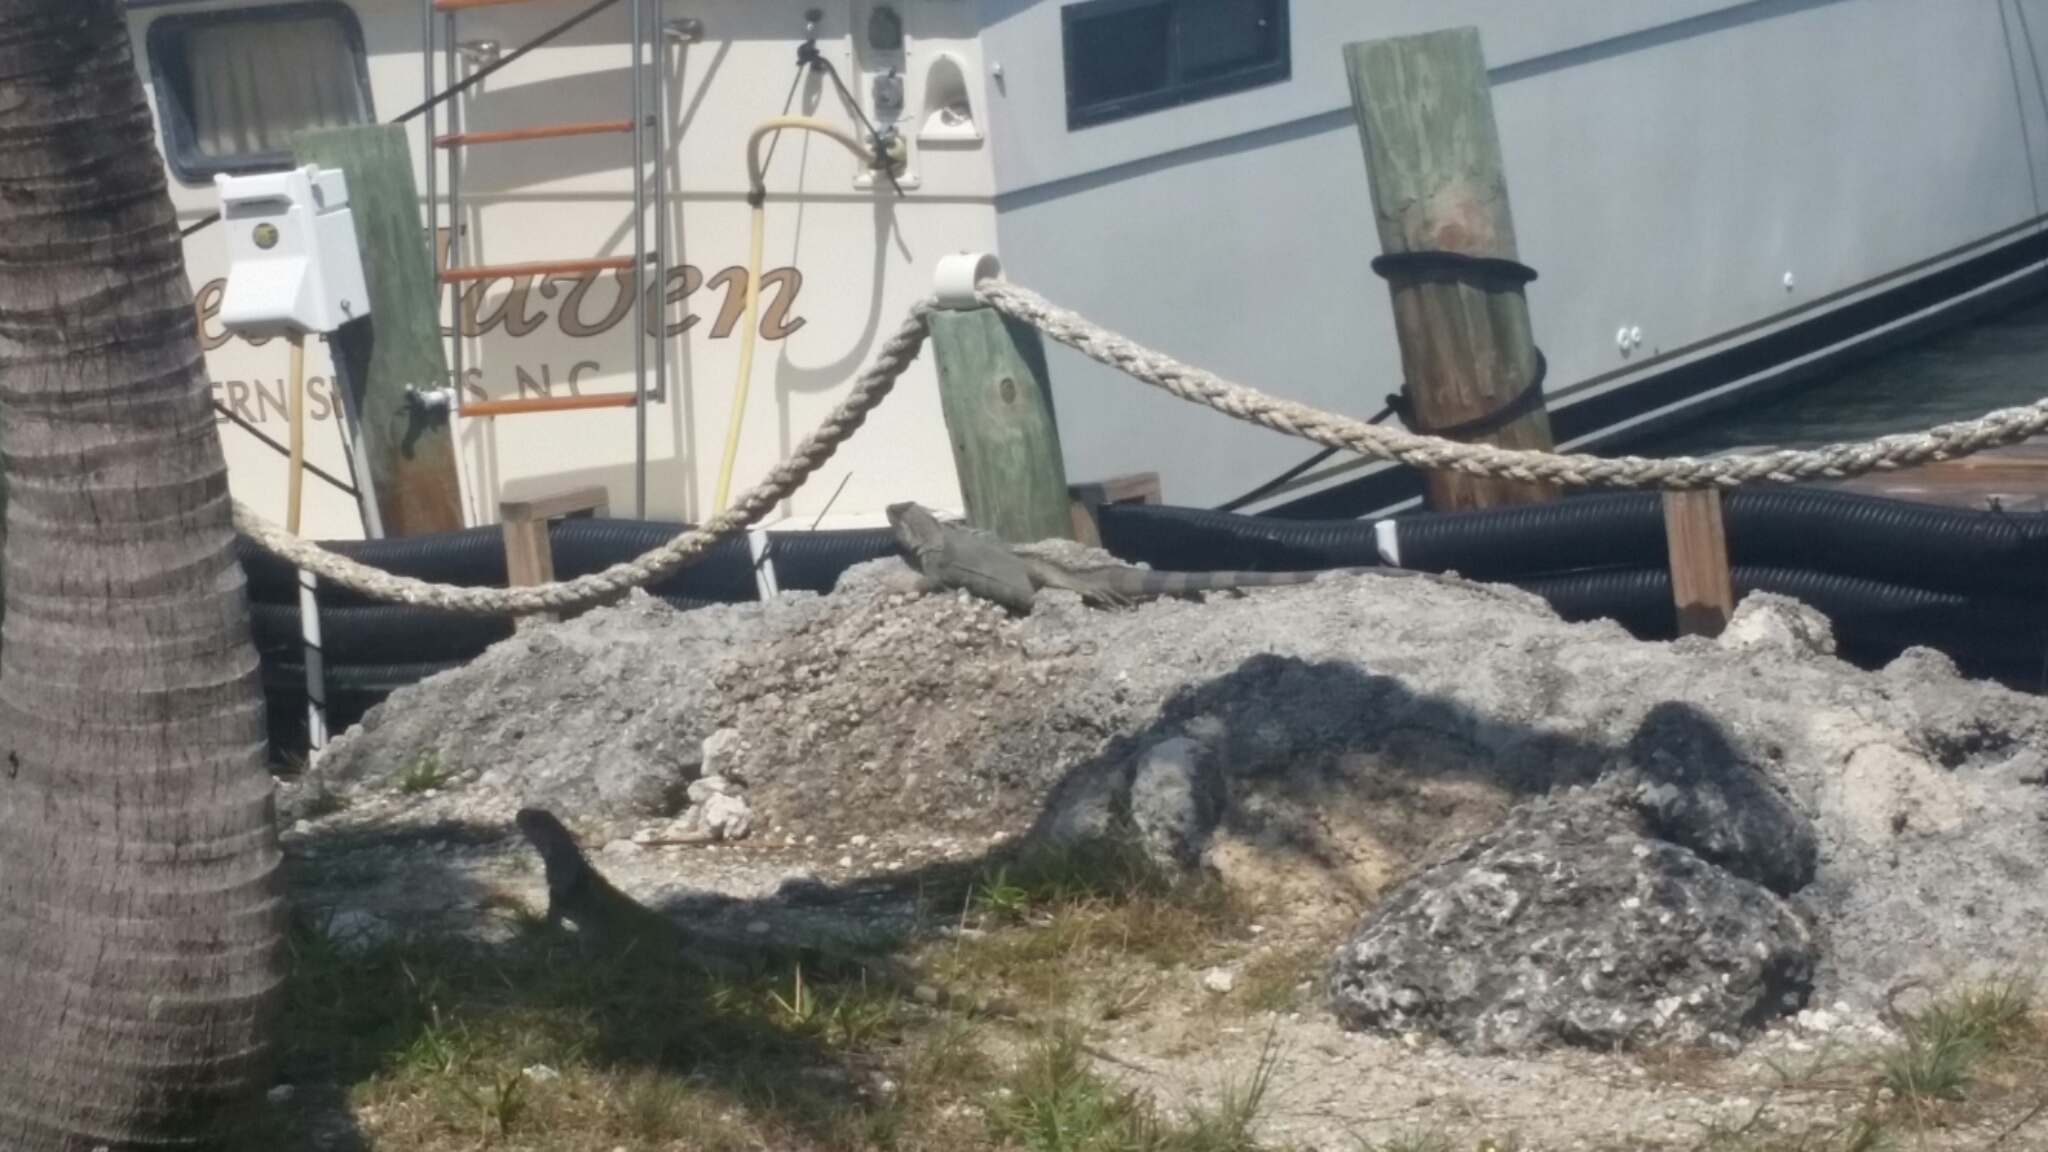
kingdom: Animalia
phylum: Chordata
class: Squamata
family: Iguanidae
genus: Iguana
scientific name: Iguana iguana
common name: Green iguana
